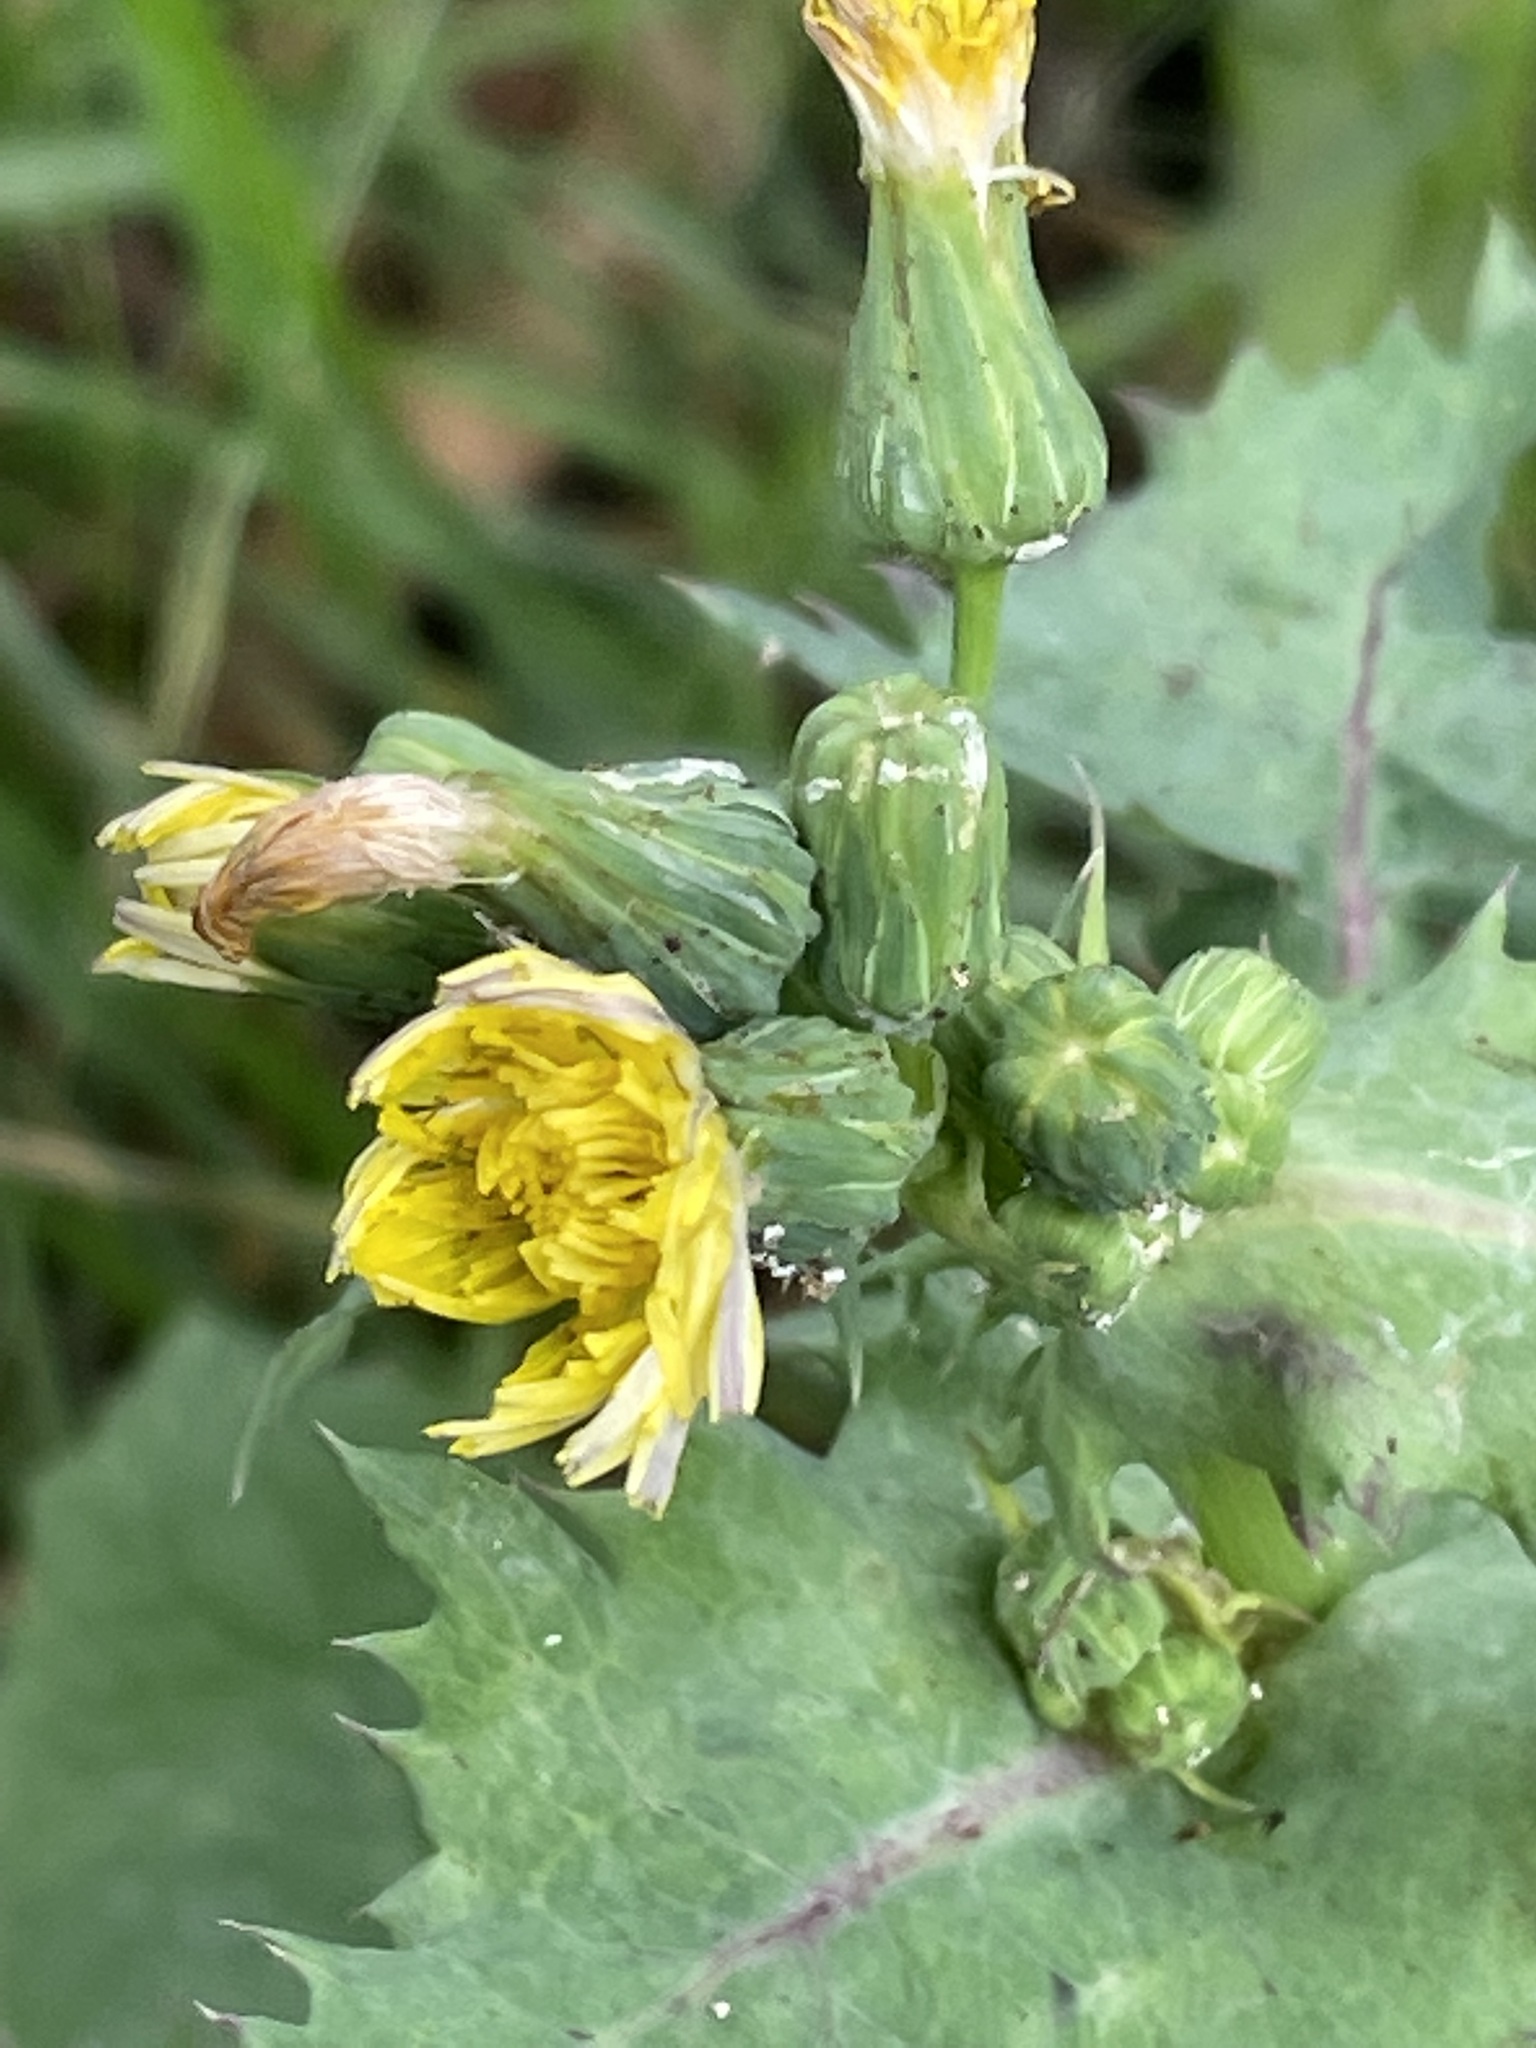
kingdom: Plantae
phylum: Tracheophyta
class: Magnoliopsida
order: Asterales
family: Asteraceae
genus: Sonchus
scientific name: Sonchus oleraceus
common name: Common sowthistle
